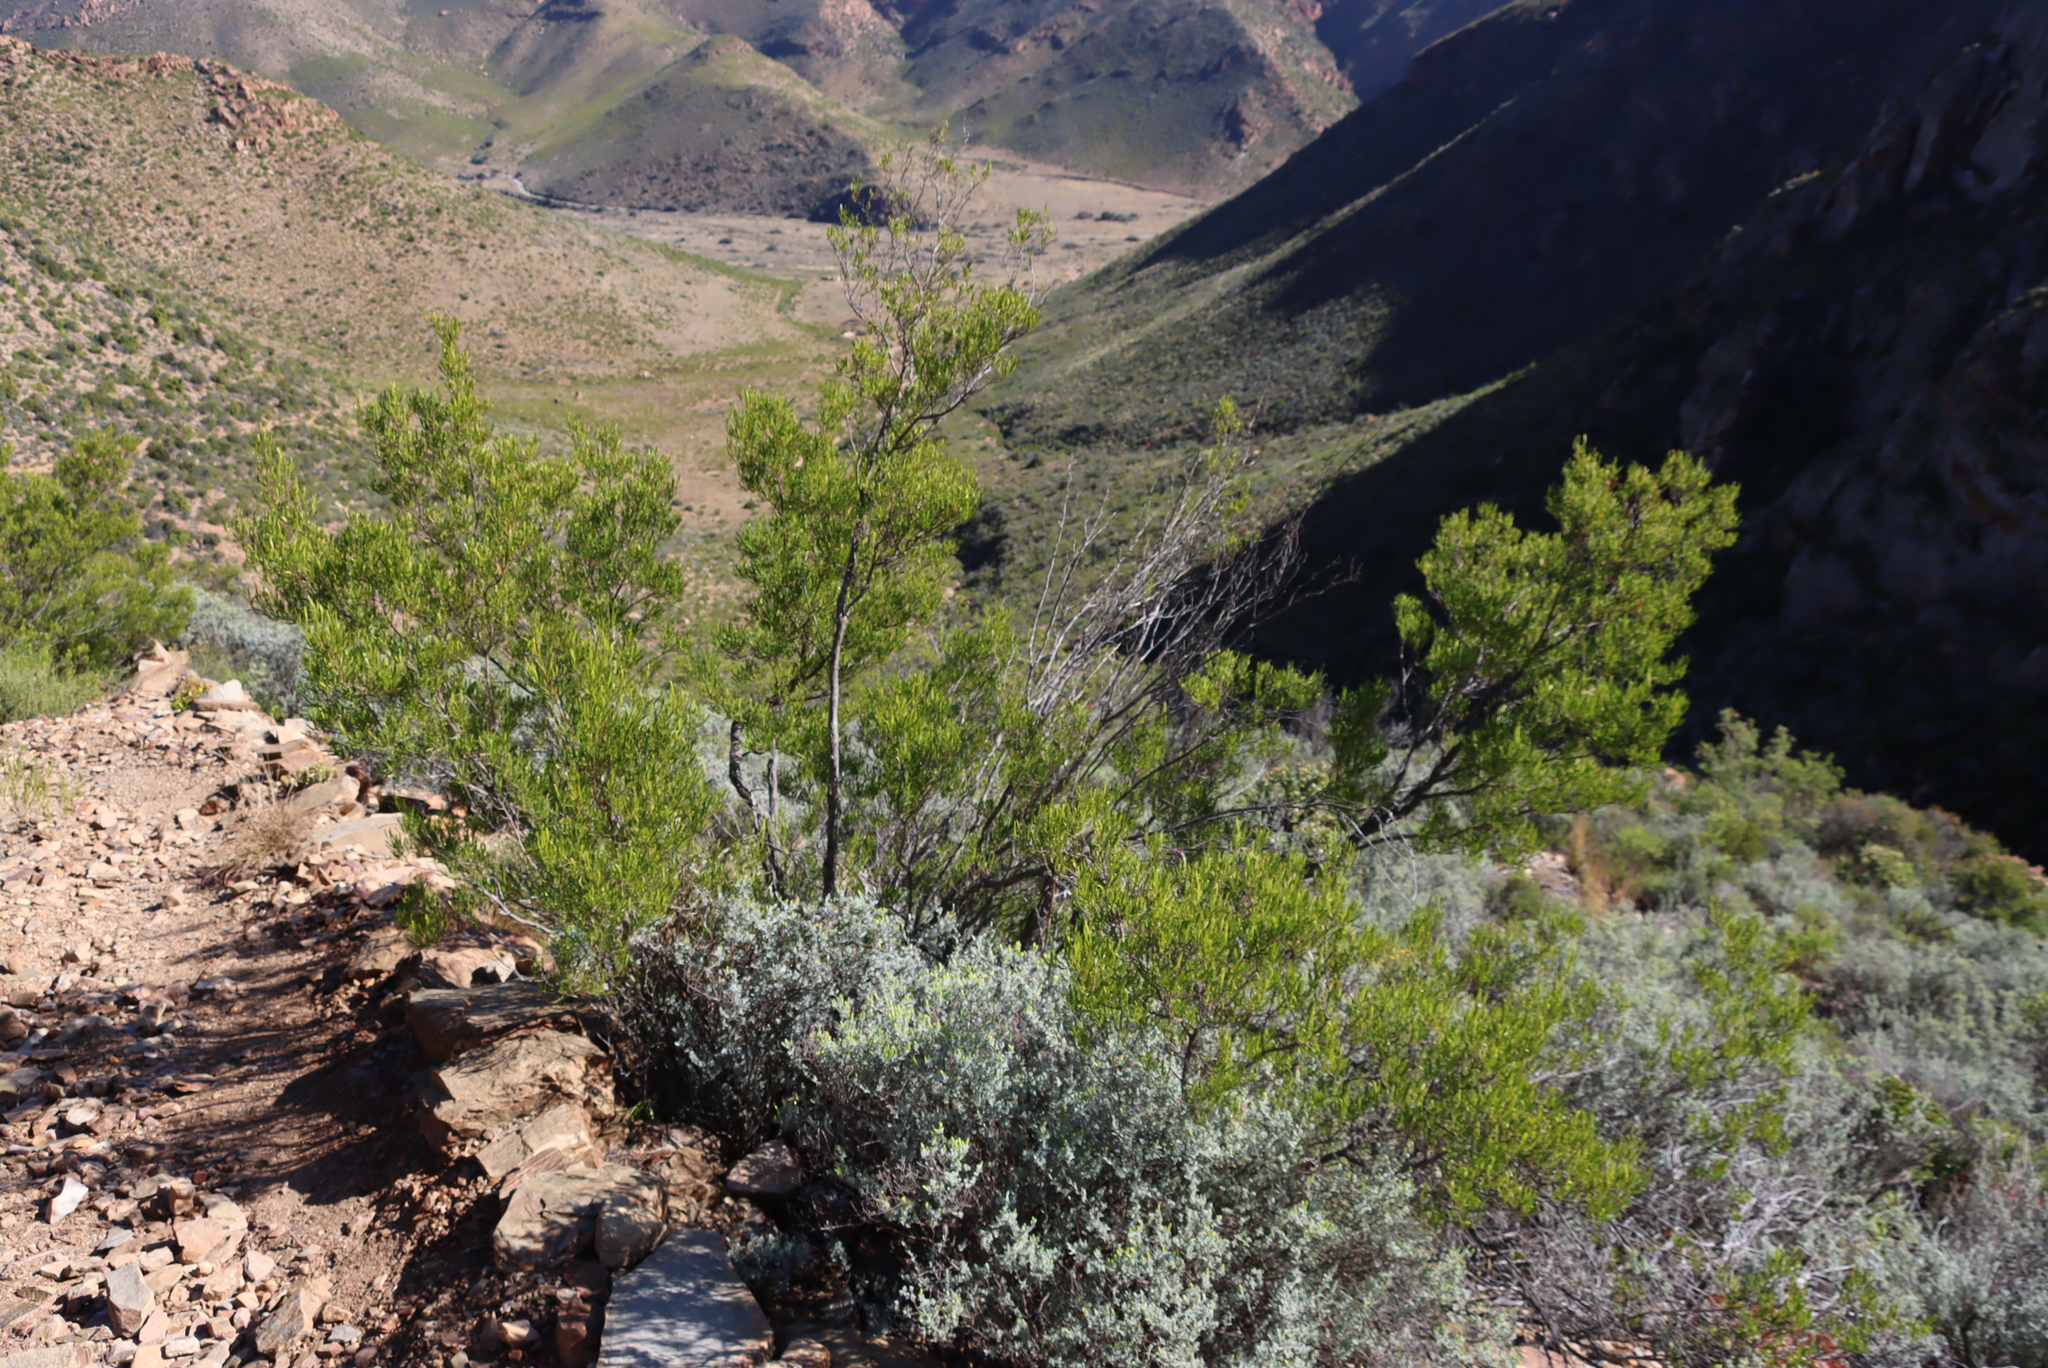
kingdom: Plantae
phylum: Tracheophyta
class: Magnoliopsida
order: Sapindales
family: Sapindaceae
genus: Dodonaea
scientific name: Dodonaea viscosa
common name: Hopbush
